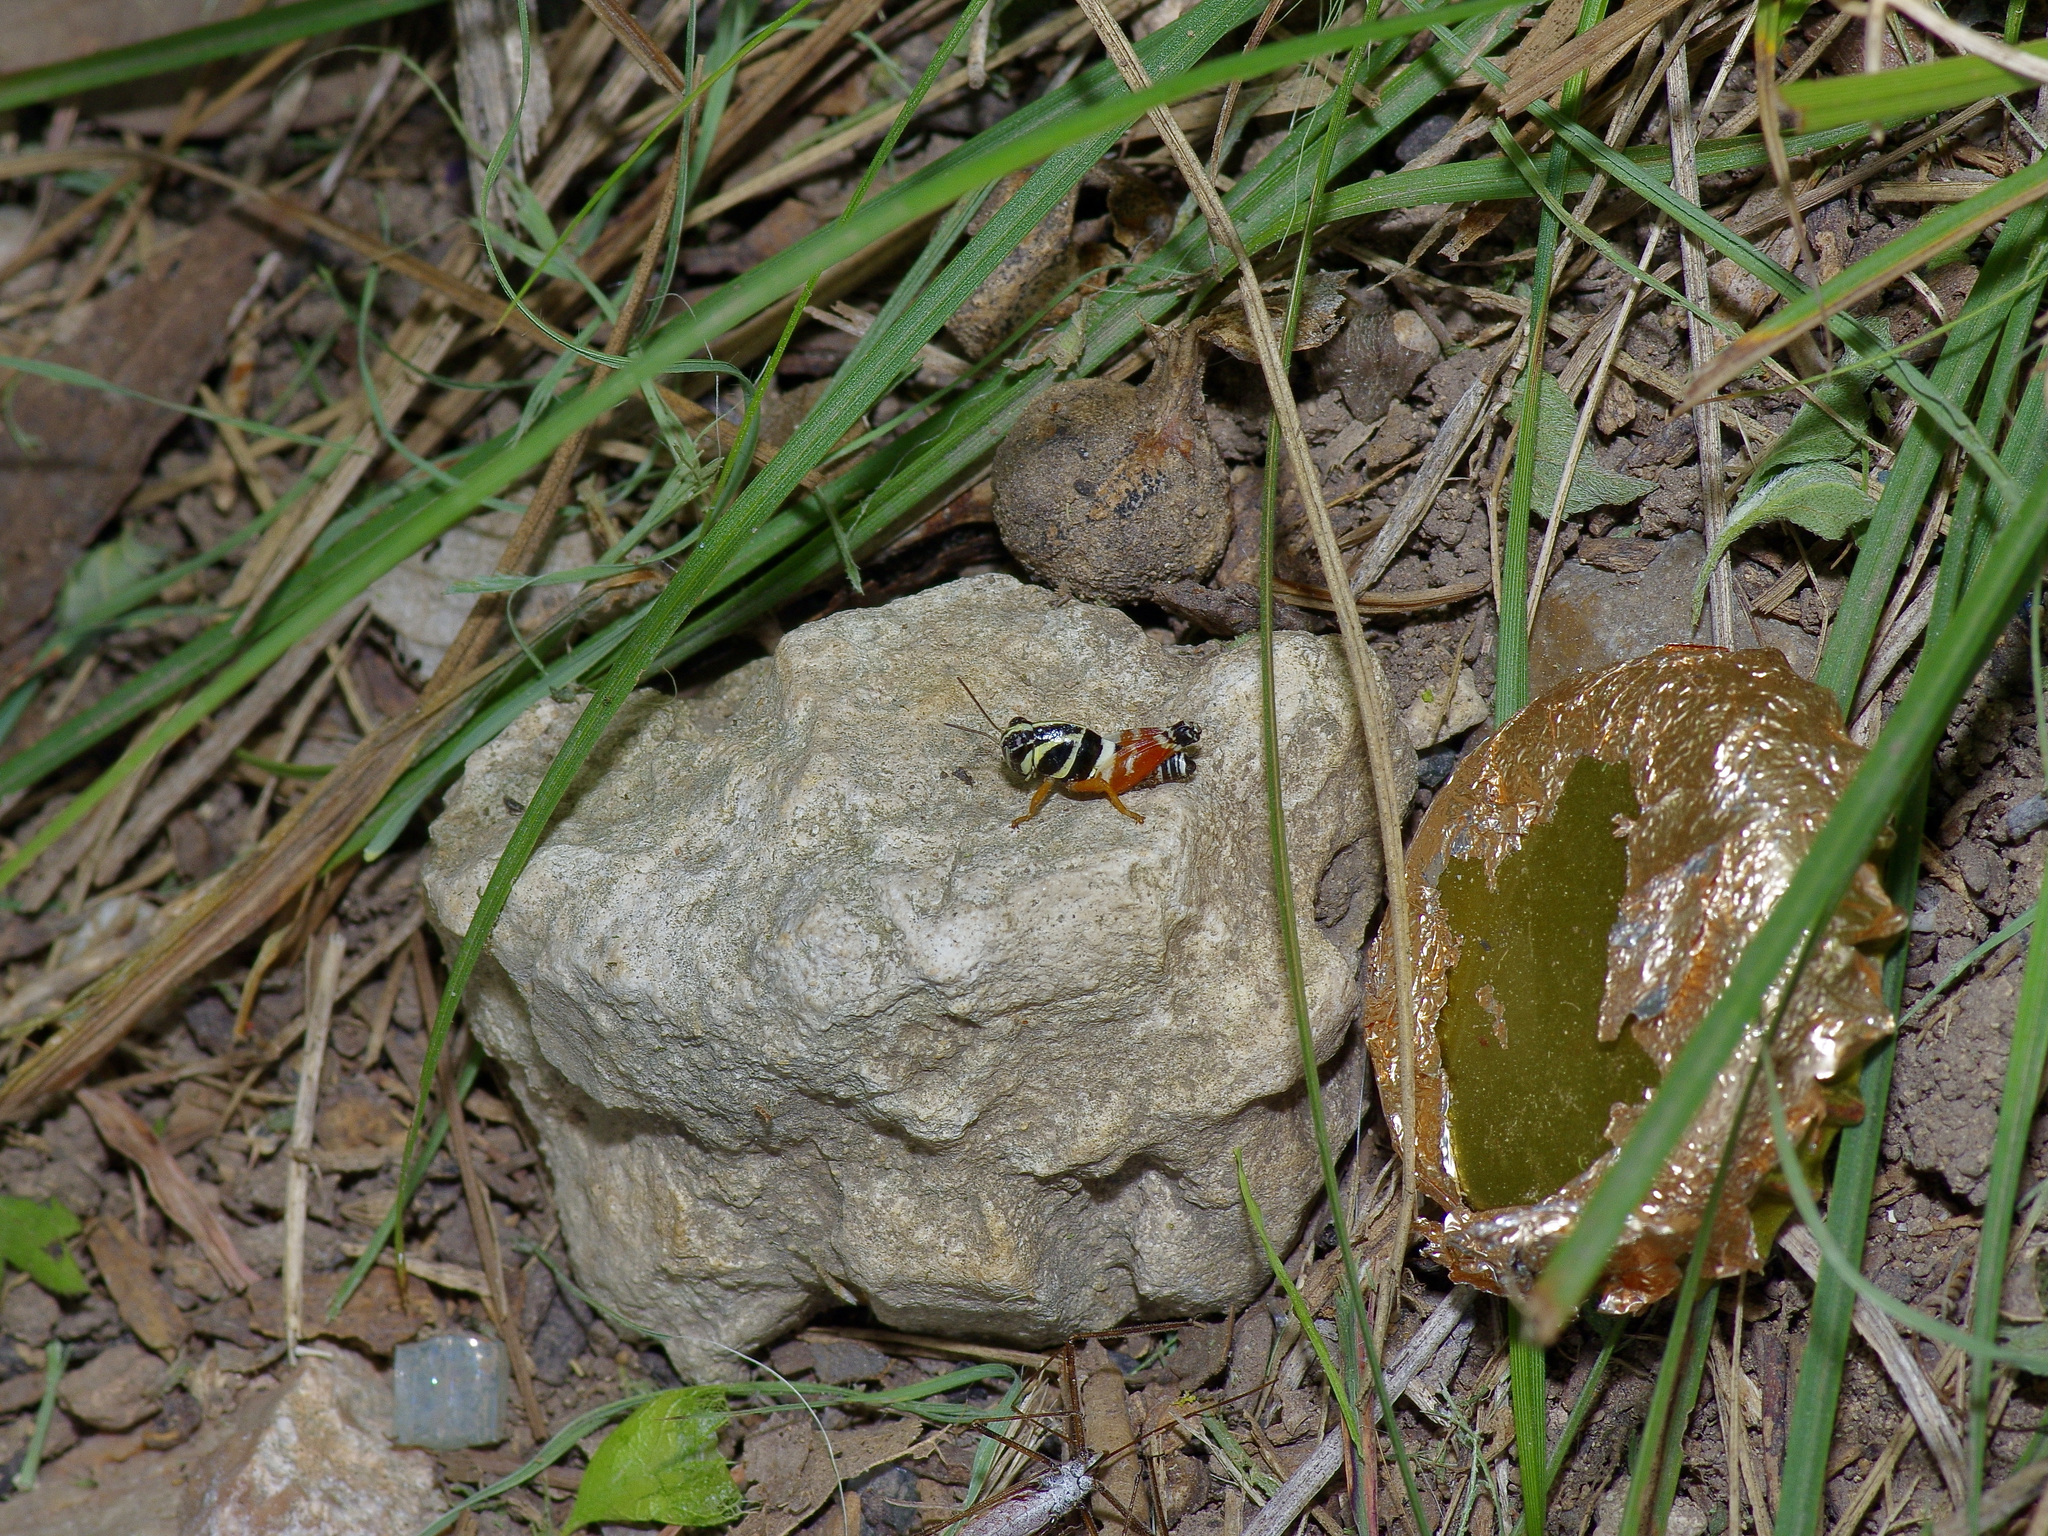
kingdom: Animalia
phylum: Arthropoda
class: Insecta
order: Orthoptera
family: Acrididae
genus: Aidemona
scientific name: Aidemona azteca
